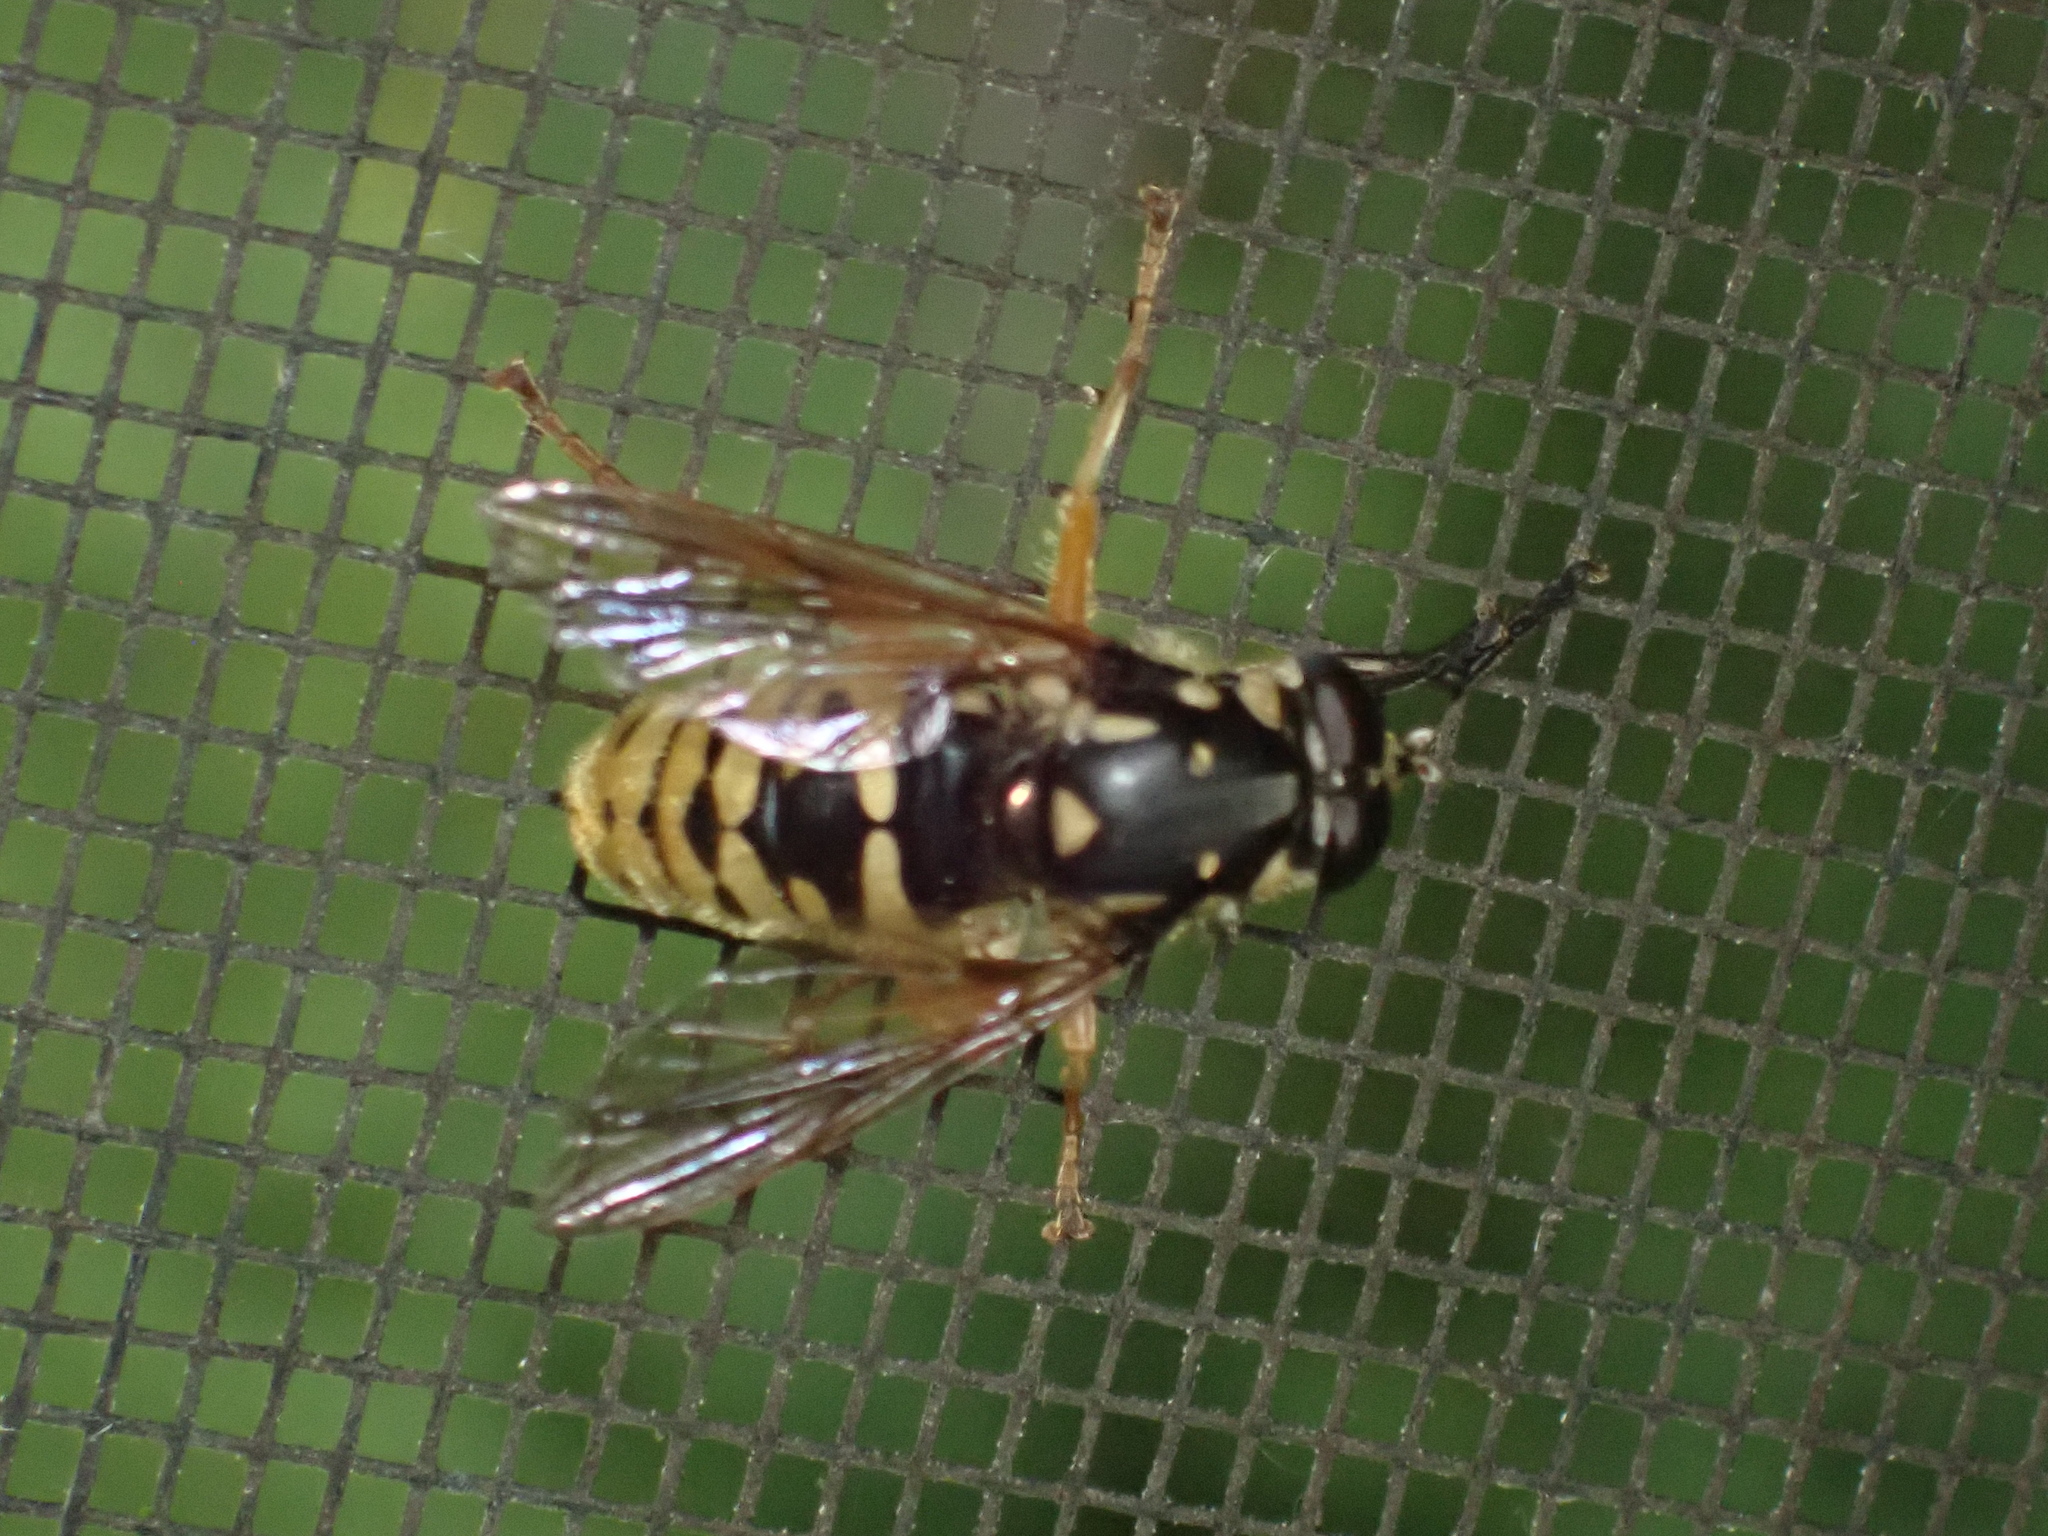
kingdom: Animalia
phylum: Arthropoda
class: Insecta
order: Diptera
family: Syrphidae
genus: Temnostoma
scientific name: Temnostoma alternans
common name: Wasp-like falsehorn
